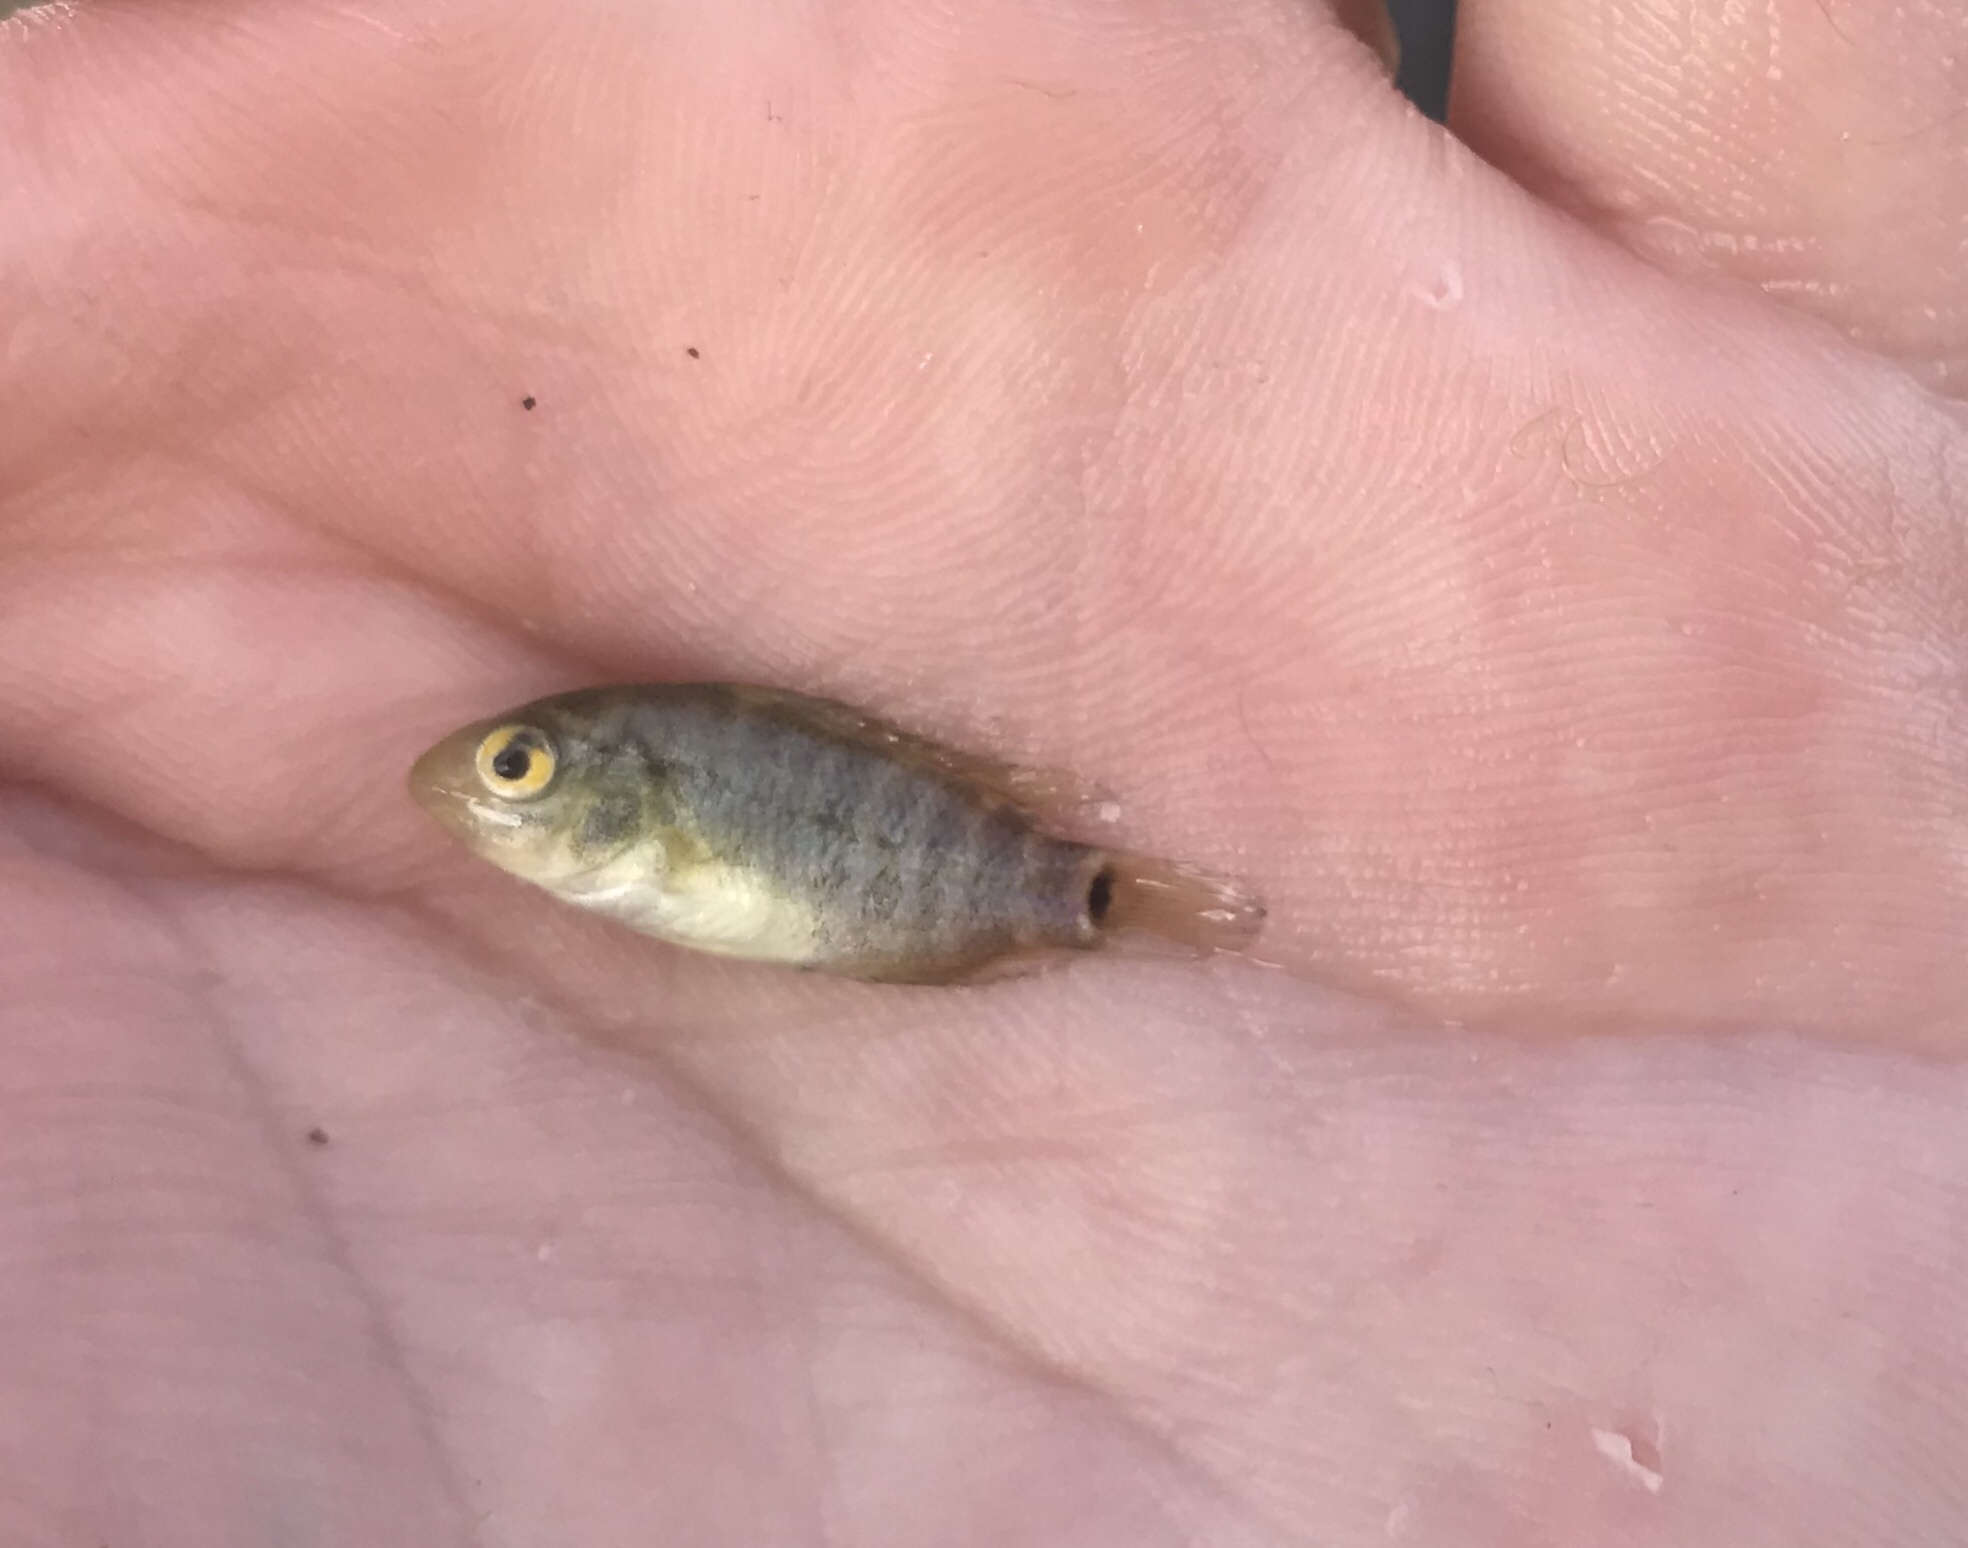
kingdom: Animalia
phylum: Chordata
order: Perciformes
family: Cichlidae
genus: Herichthys
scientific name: Herichthys cyanoguttatus
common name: Rio grande cichlid
